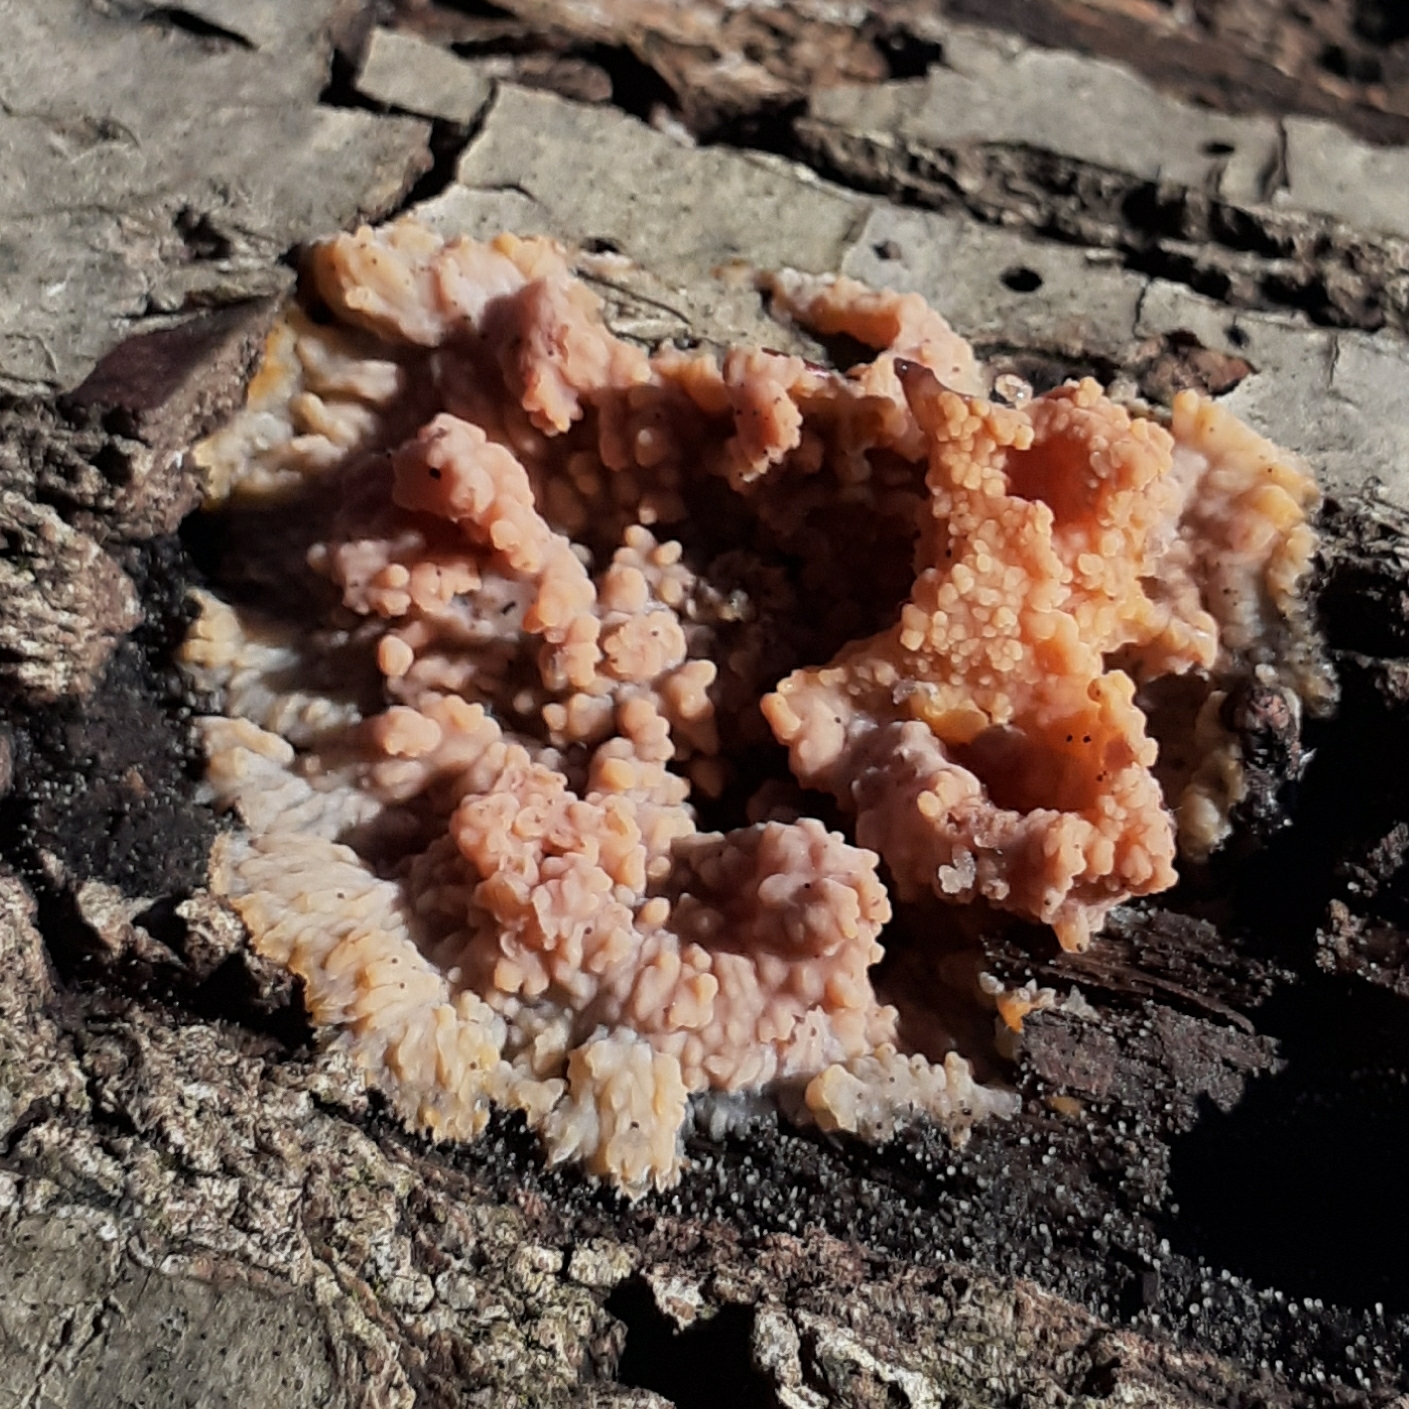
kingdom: Fungi
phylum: Basidiomycota
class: Agaricomycetes
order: Polyporales
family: Meruliaceae
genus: Phlebia
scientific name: Phlebia radiata
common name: Wrinkled crust
